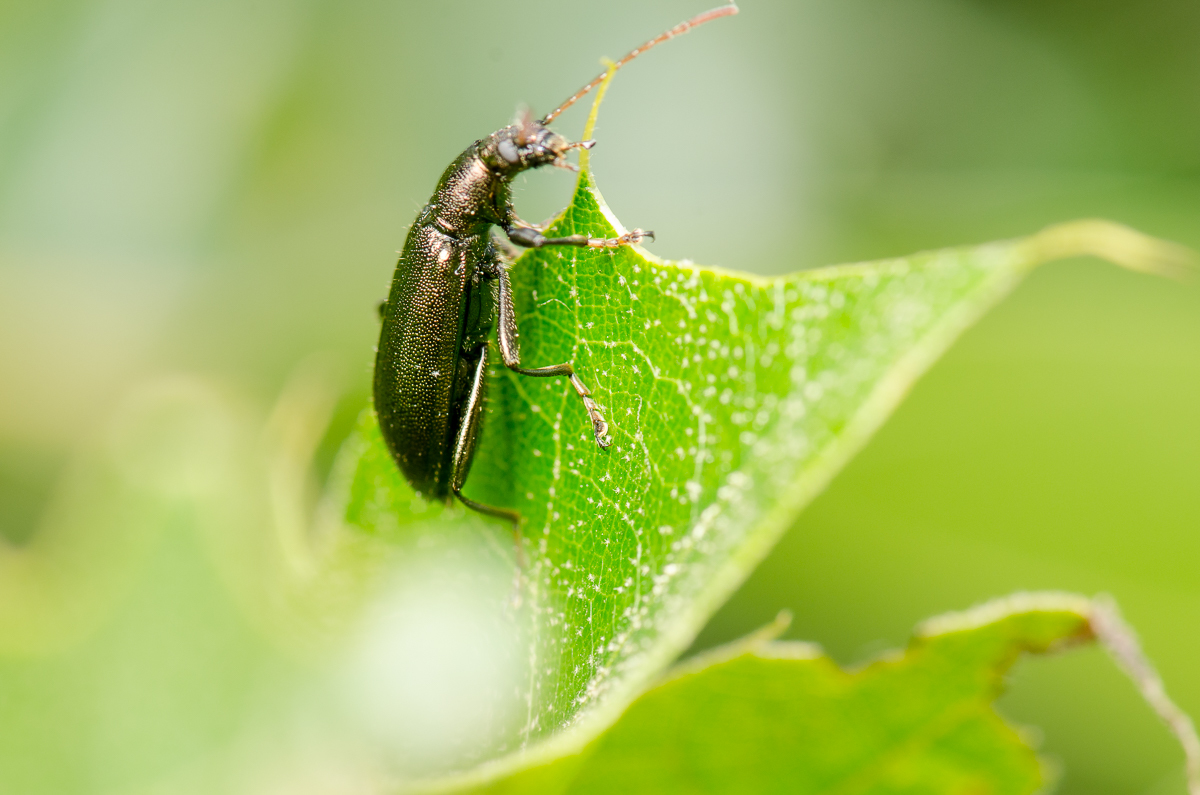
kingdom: Animalia
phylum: Arthropoda
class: Insecta
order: Coleoptera
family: Tenebrionidae
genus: Arthromacra
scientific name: Arthromacra aenea
